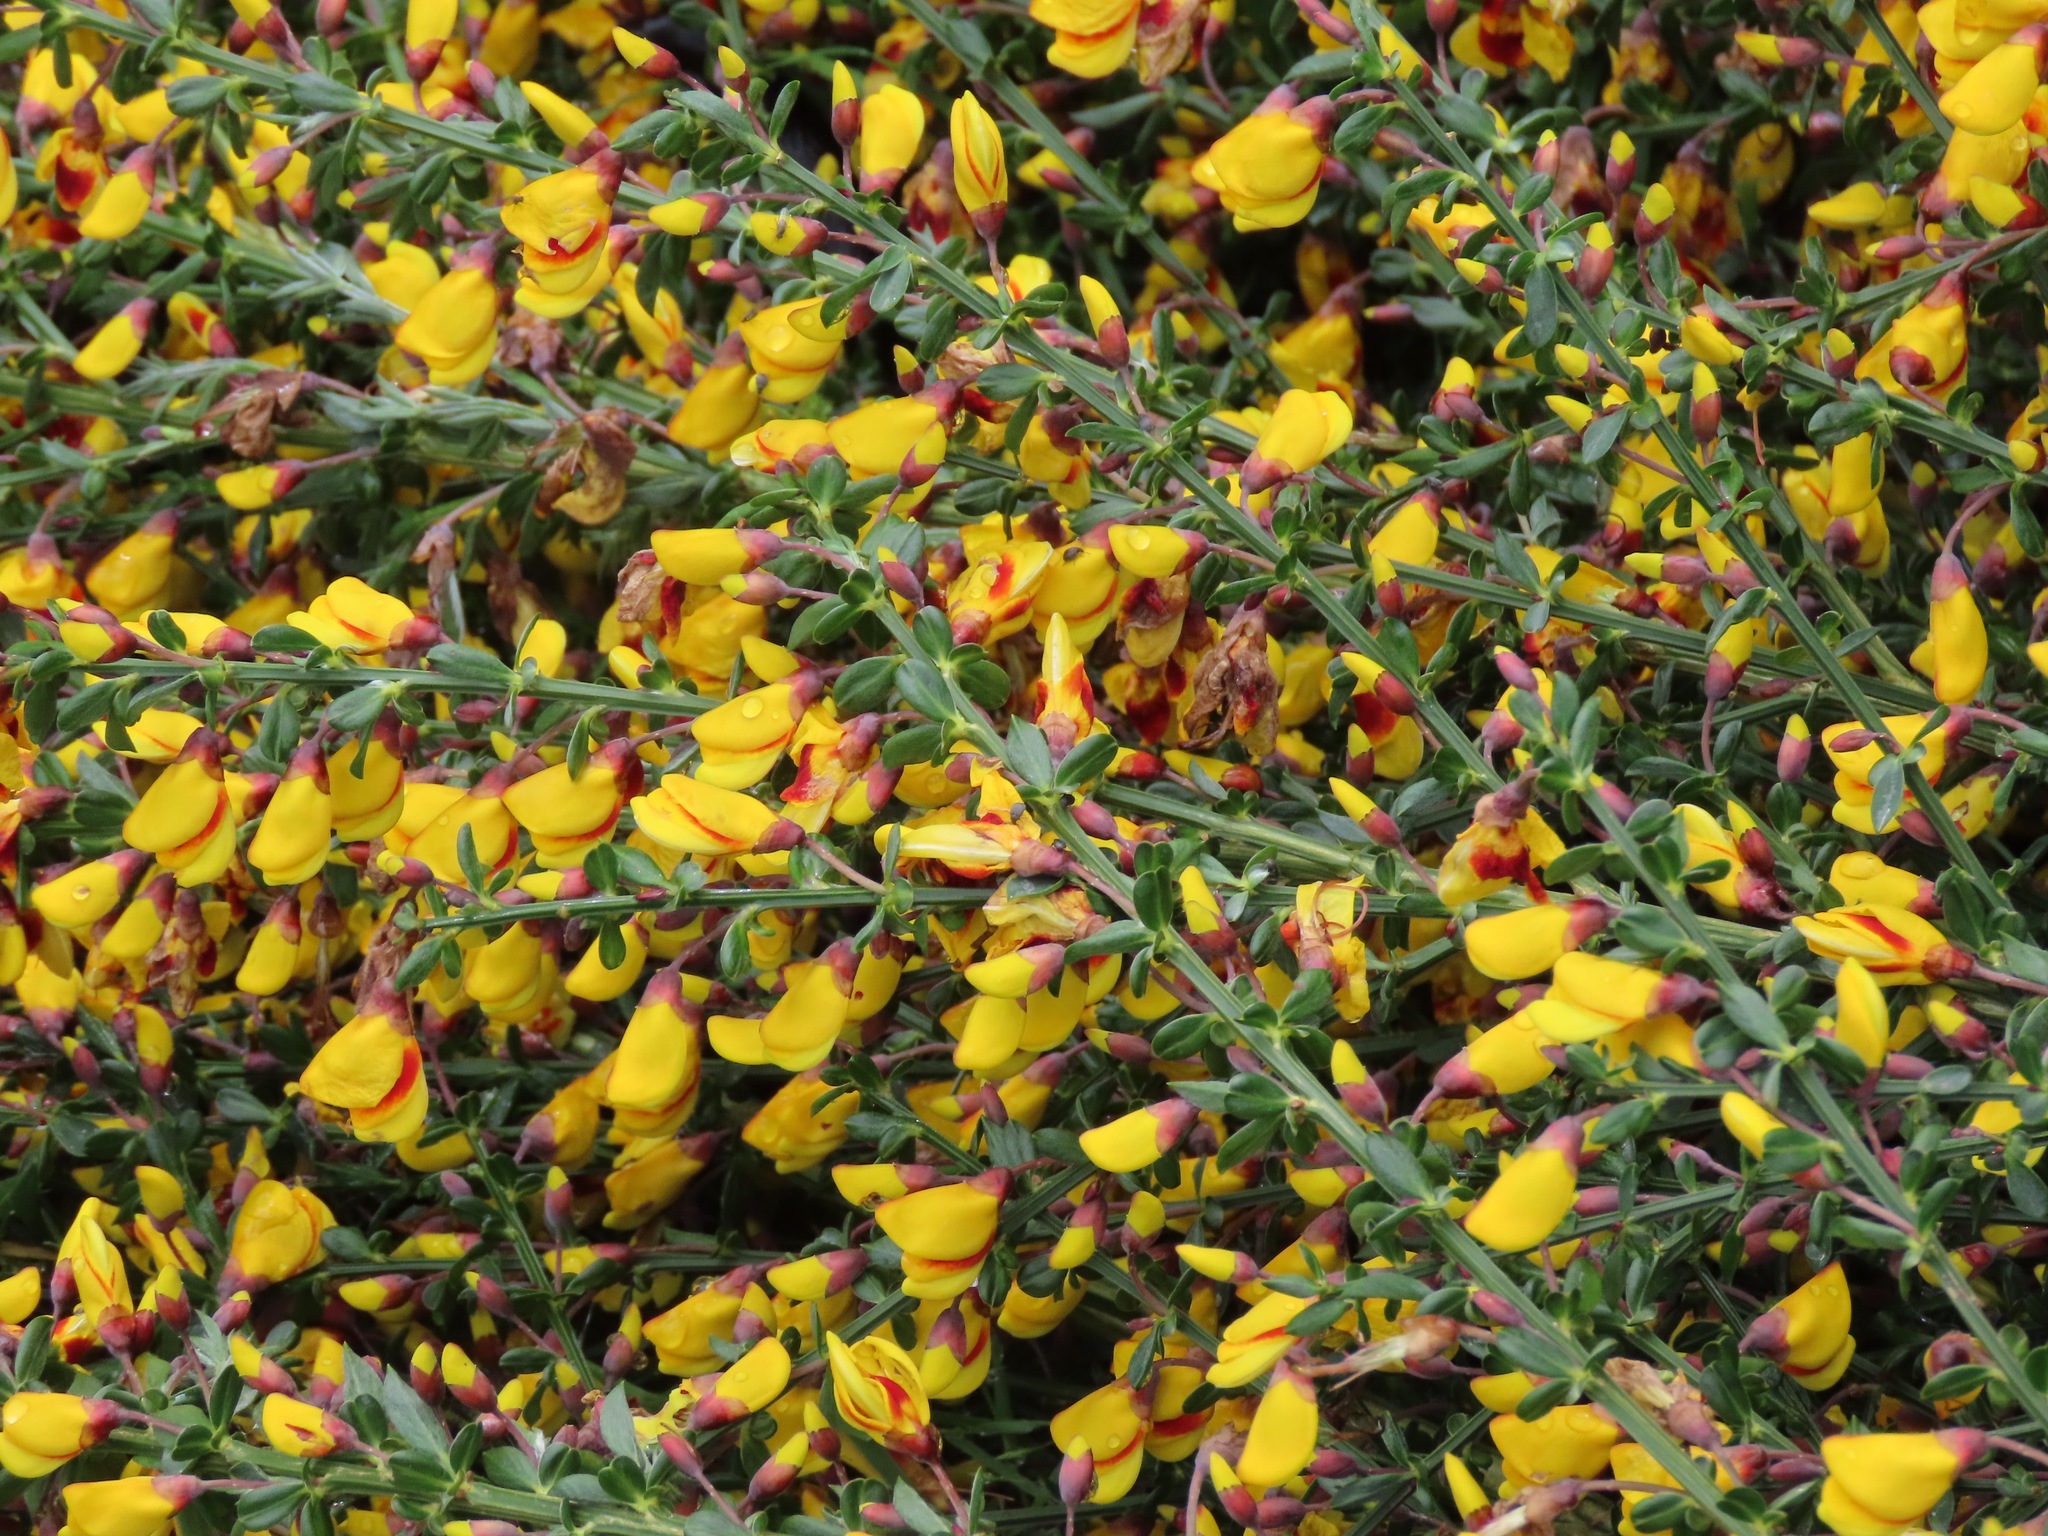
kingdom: Plantae
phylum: Tracheophyta
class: Magnoliopsida
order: Fabales
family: Fabaceae
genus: Cytisus
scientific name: Cytisus scoparius
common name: Scotch broom
